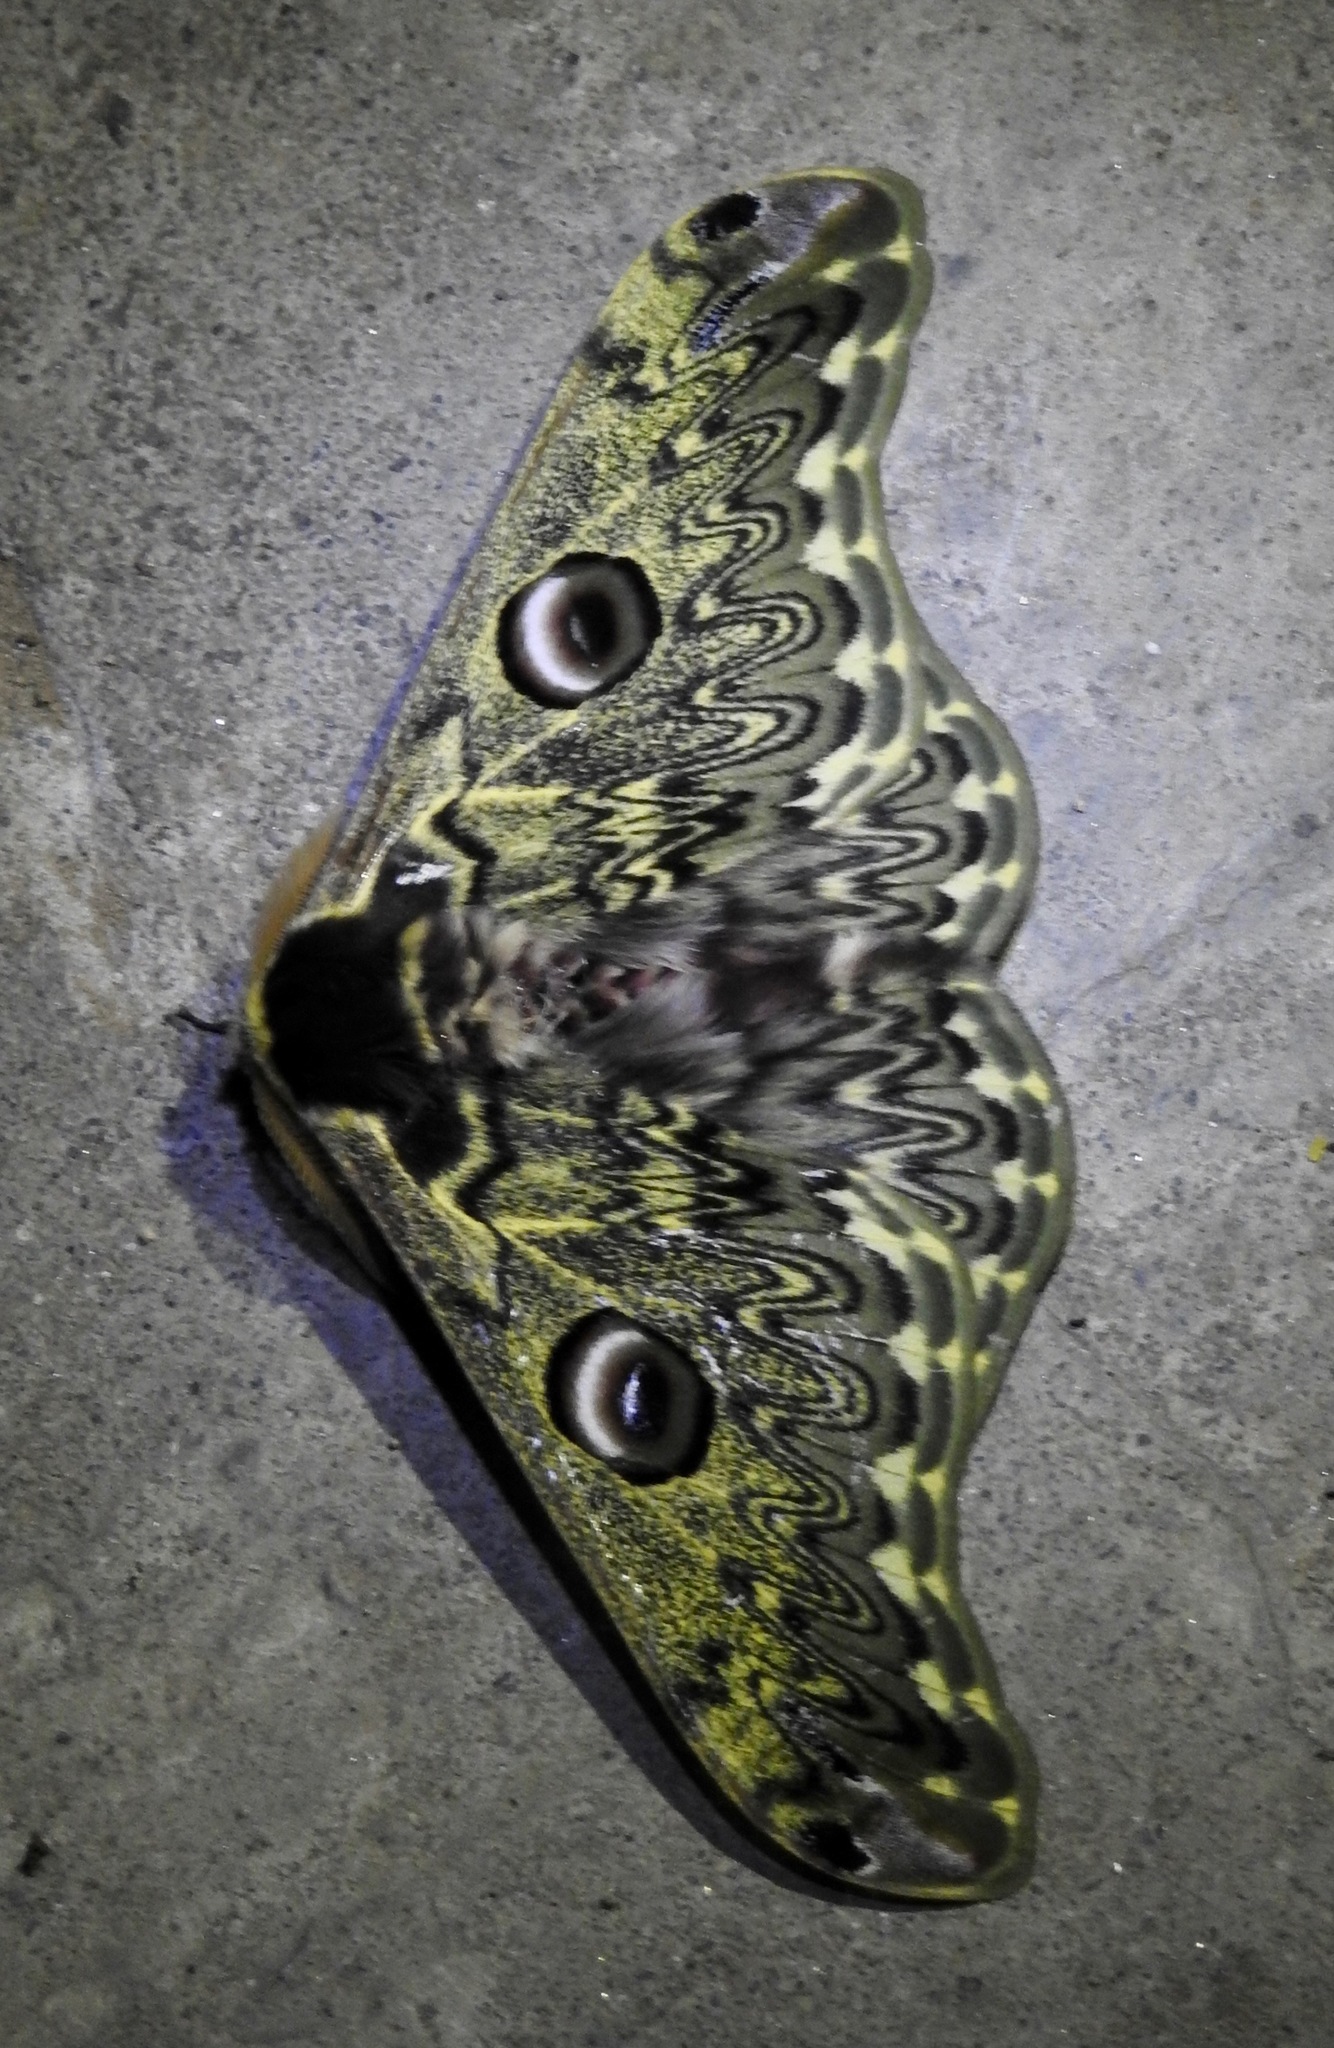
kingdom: Animalia
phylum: Arthropoda
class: Insecta
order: Lepidoptera
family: Saturniidae
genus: Saturnia
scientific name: Saturnia anna
